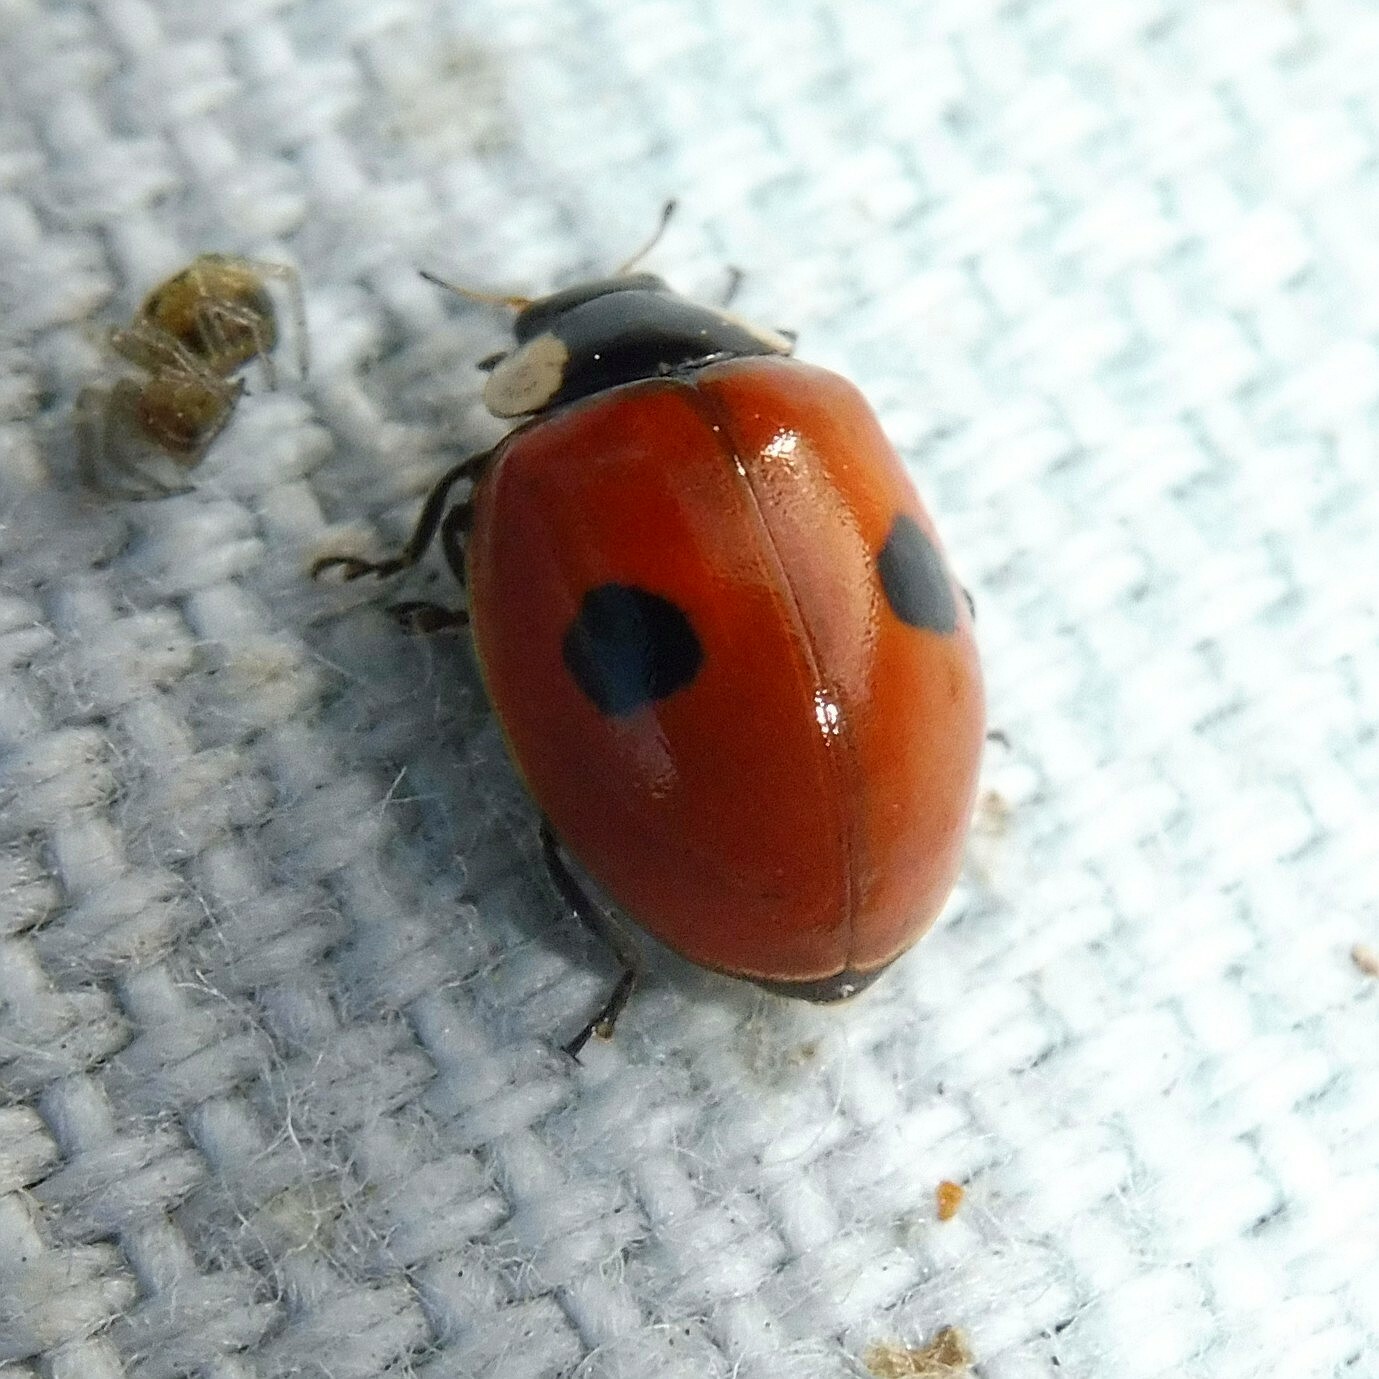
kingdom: Animalia
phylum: Arthropoda
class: Insecta
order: Coleoptera
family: Coccinellidae
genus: Adalia
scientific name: Adalia bipunctata
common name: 2-spot ladybird
